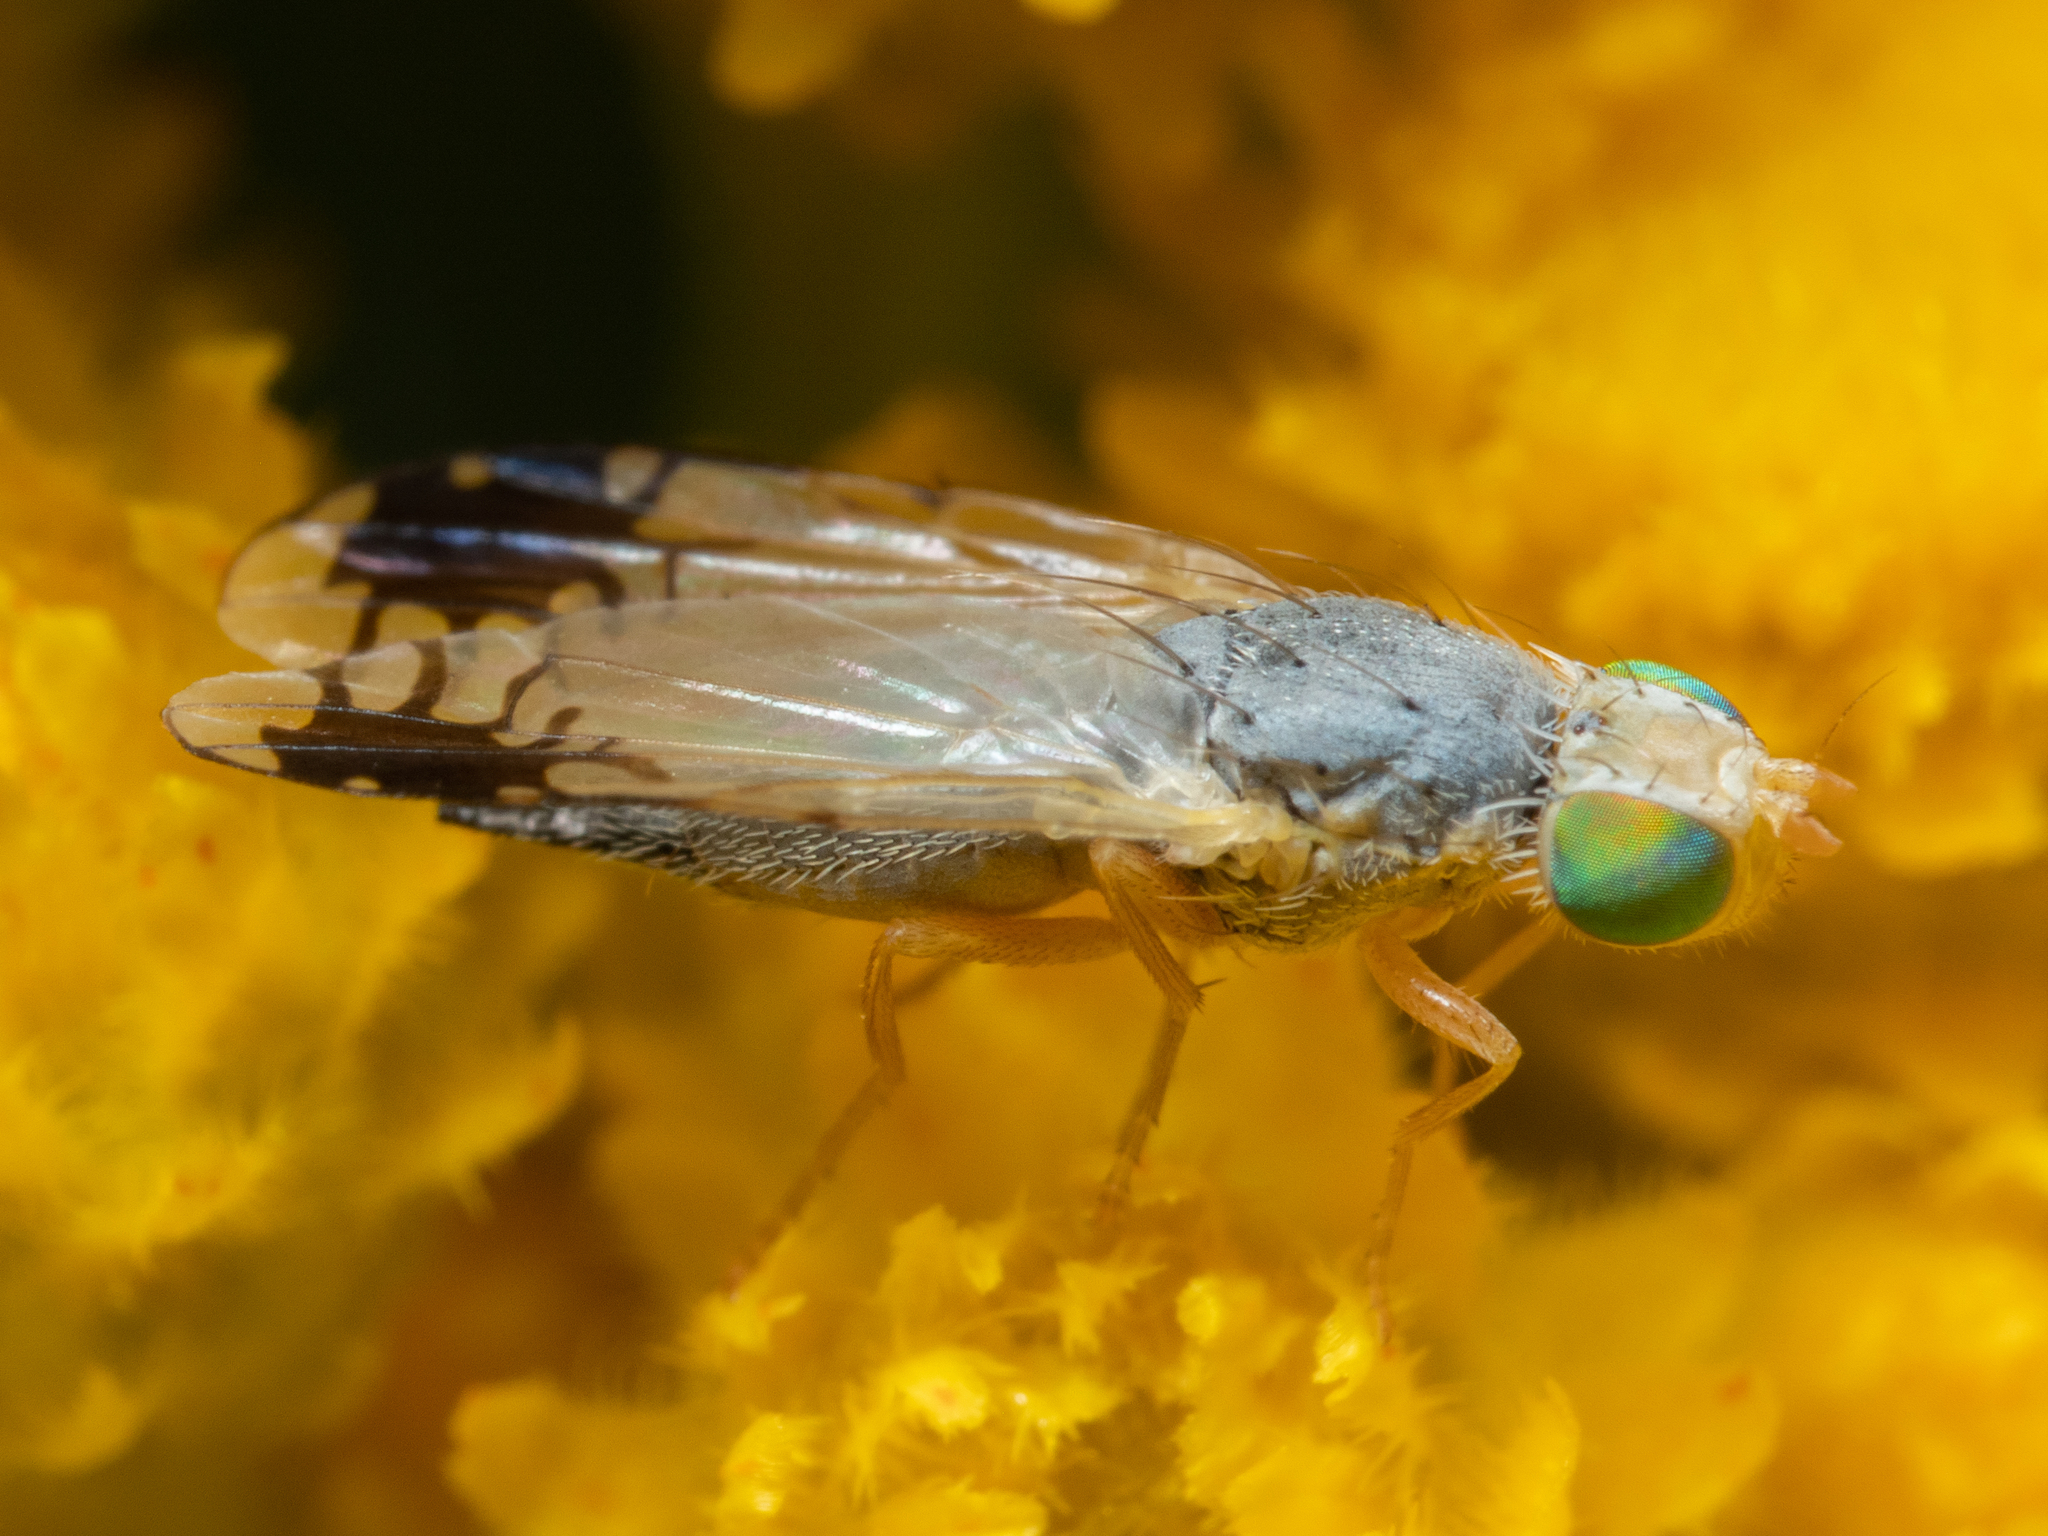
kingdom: Animalia
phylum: Arthropoda
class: Insecta
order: Diptera
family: Tephritidae
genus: Trupanea
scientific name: Trupanea glauca
